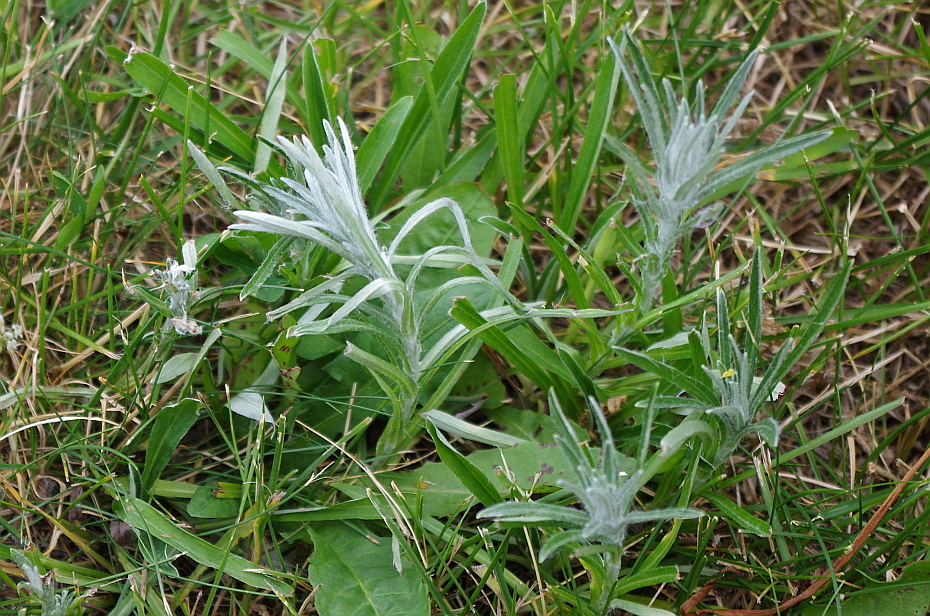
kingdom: Plantae
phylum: Tracheophyta
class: Magnoliopsida
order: Asterales
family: Asteraceae
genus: Omalotheca
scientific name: Omalotheca sylvatica
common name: Heath cudweed
